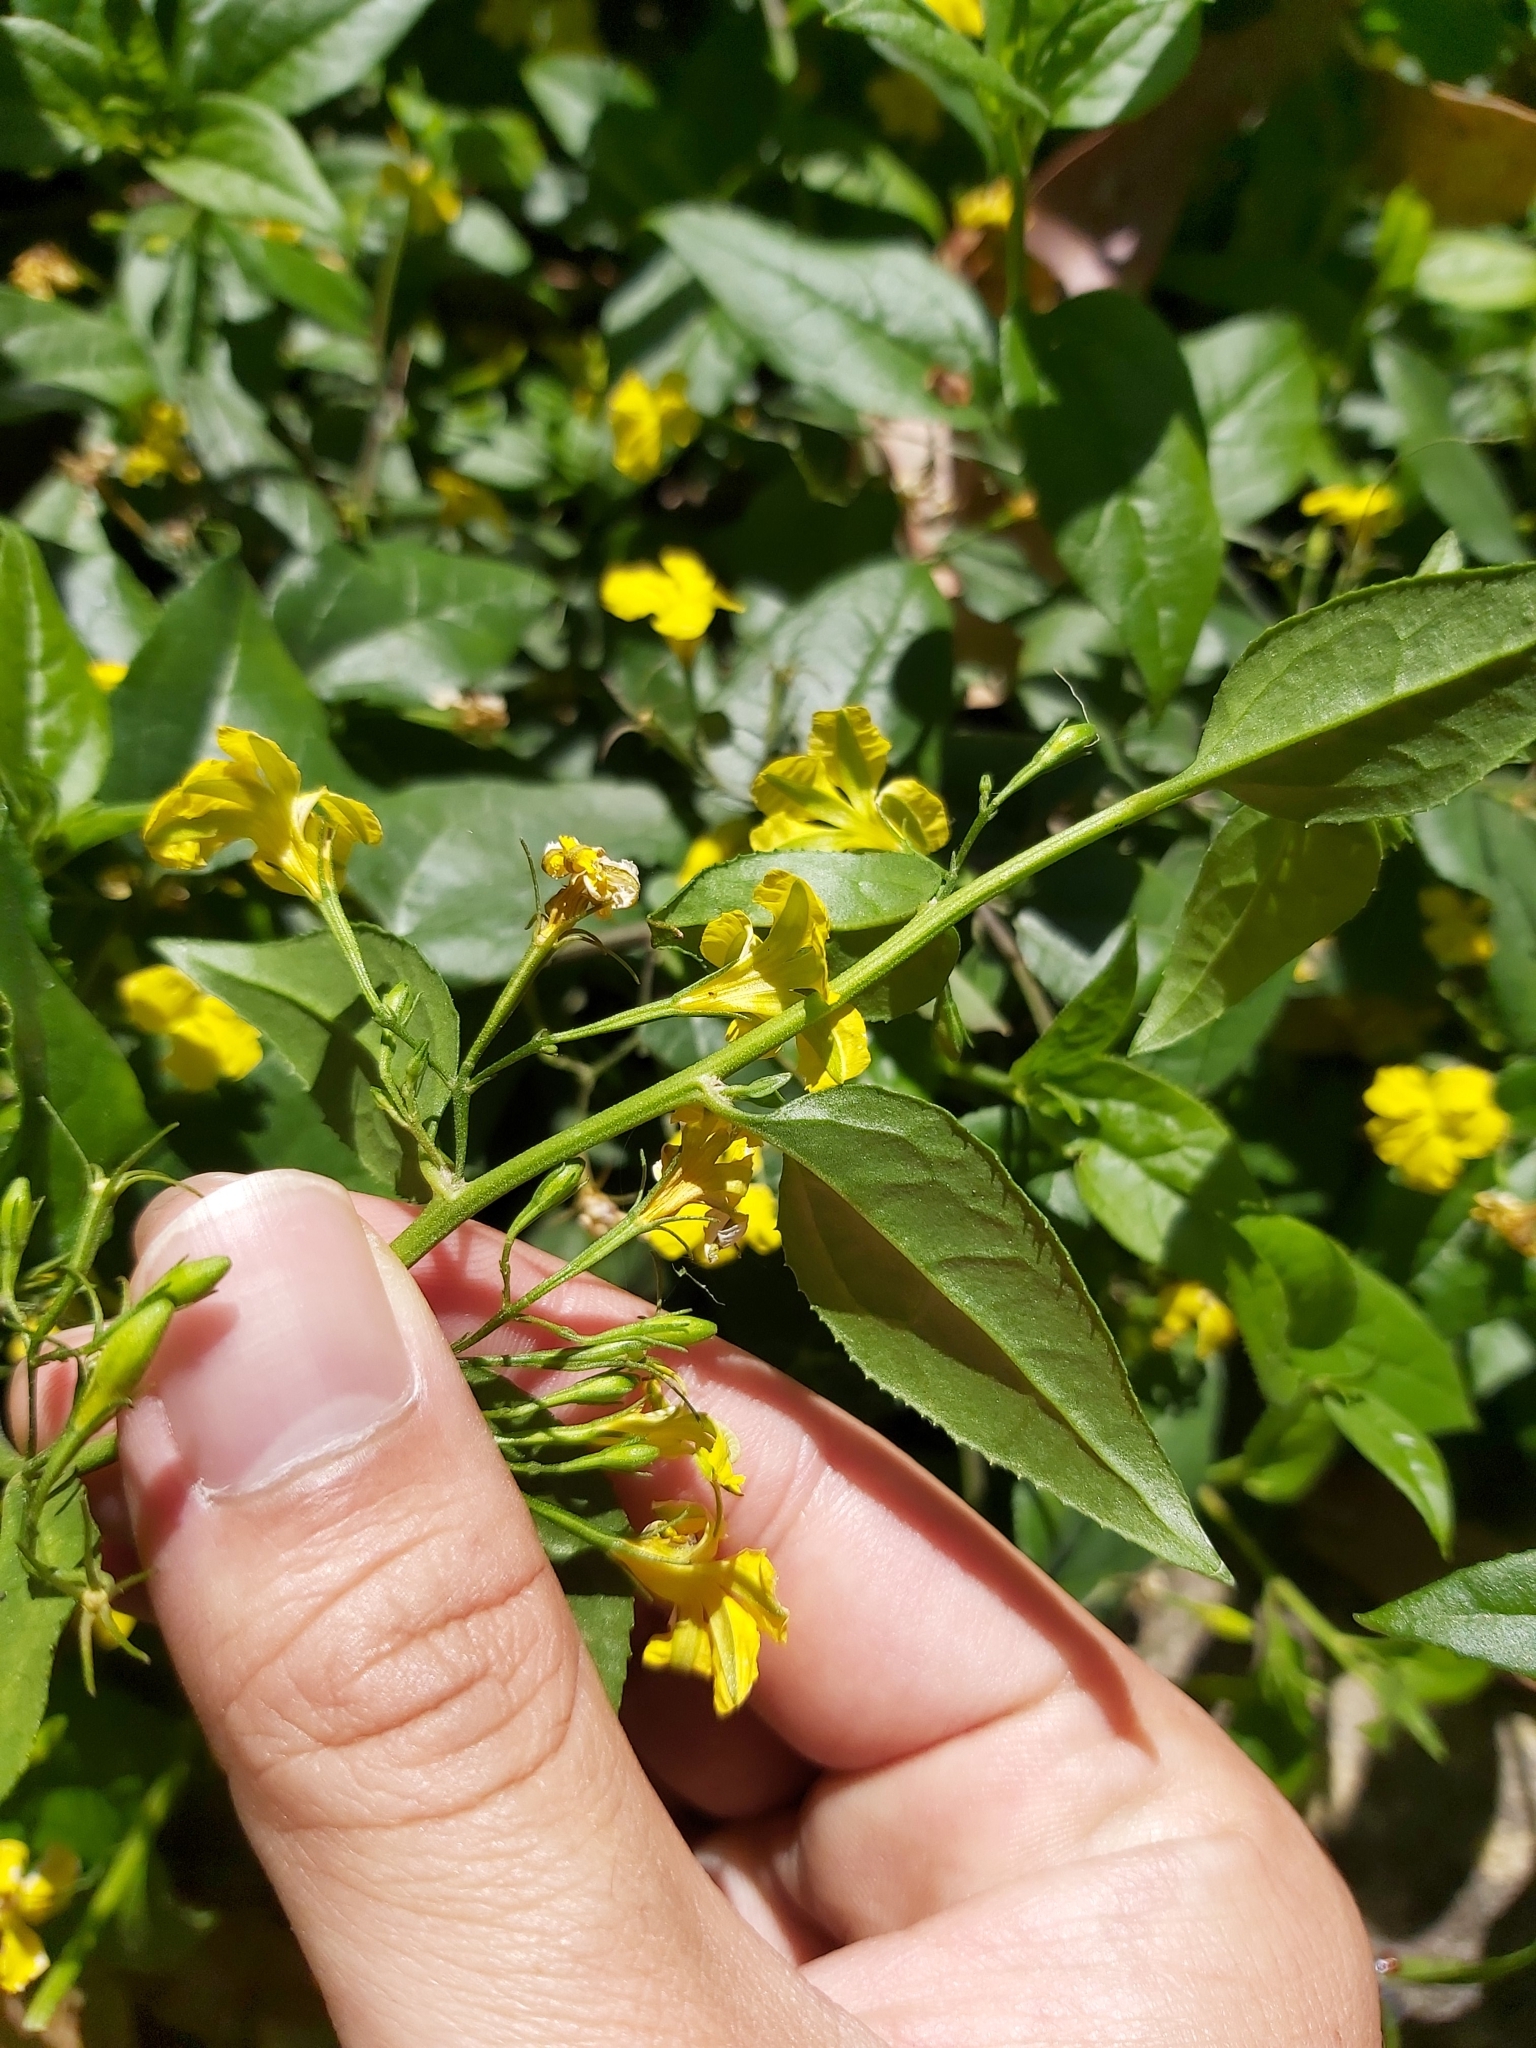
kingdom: Plantae
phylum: Tracheophyta
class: Magnoliopsida
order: Asterales
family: Goodeniaceae
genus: Goodenia
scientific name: Goodenia ovata
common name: Hop goodenia
